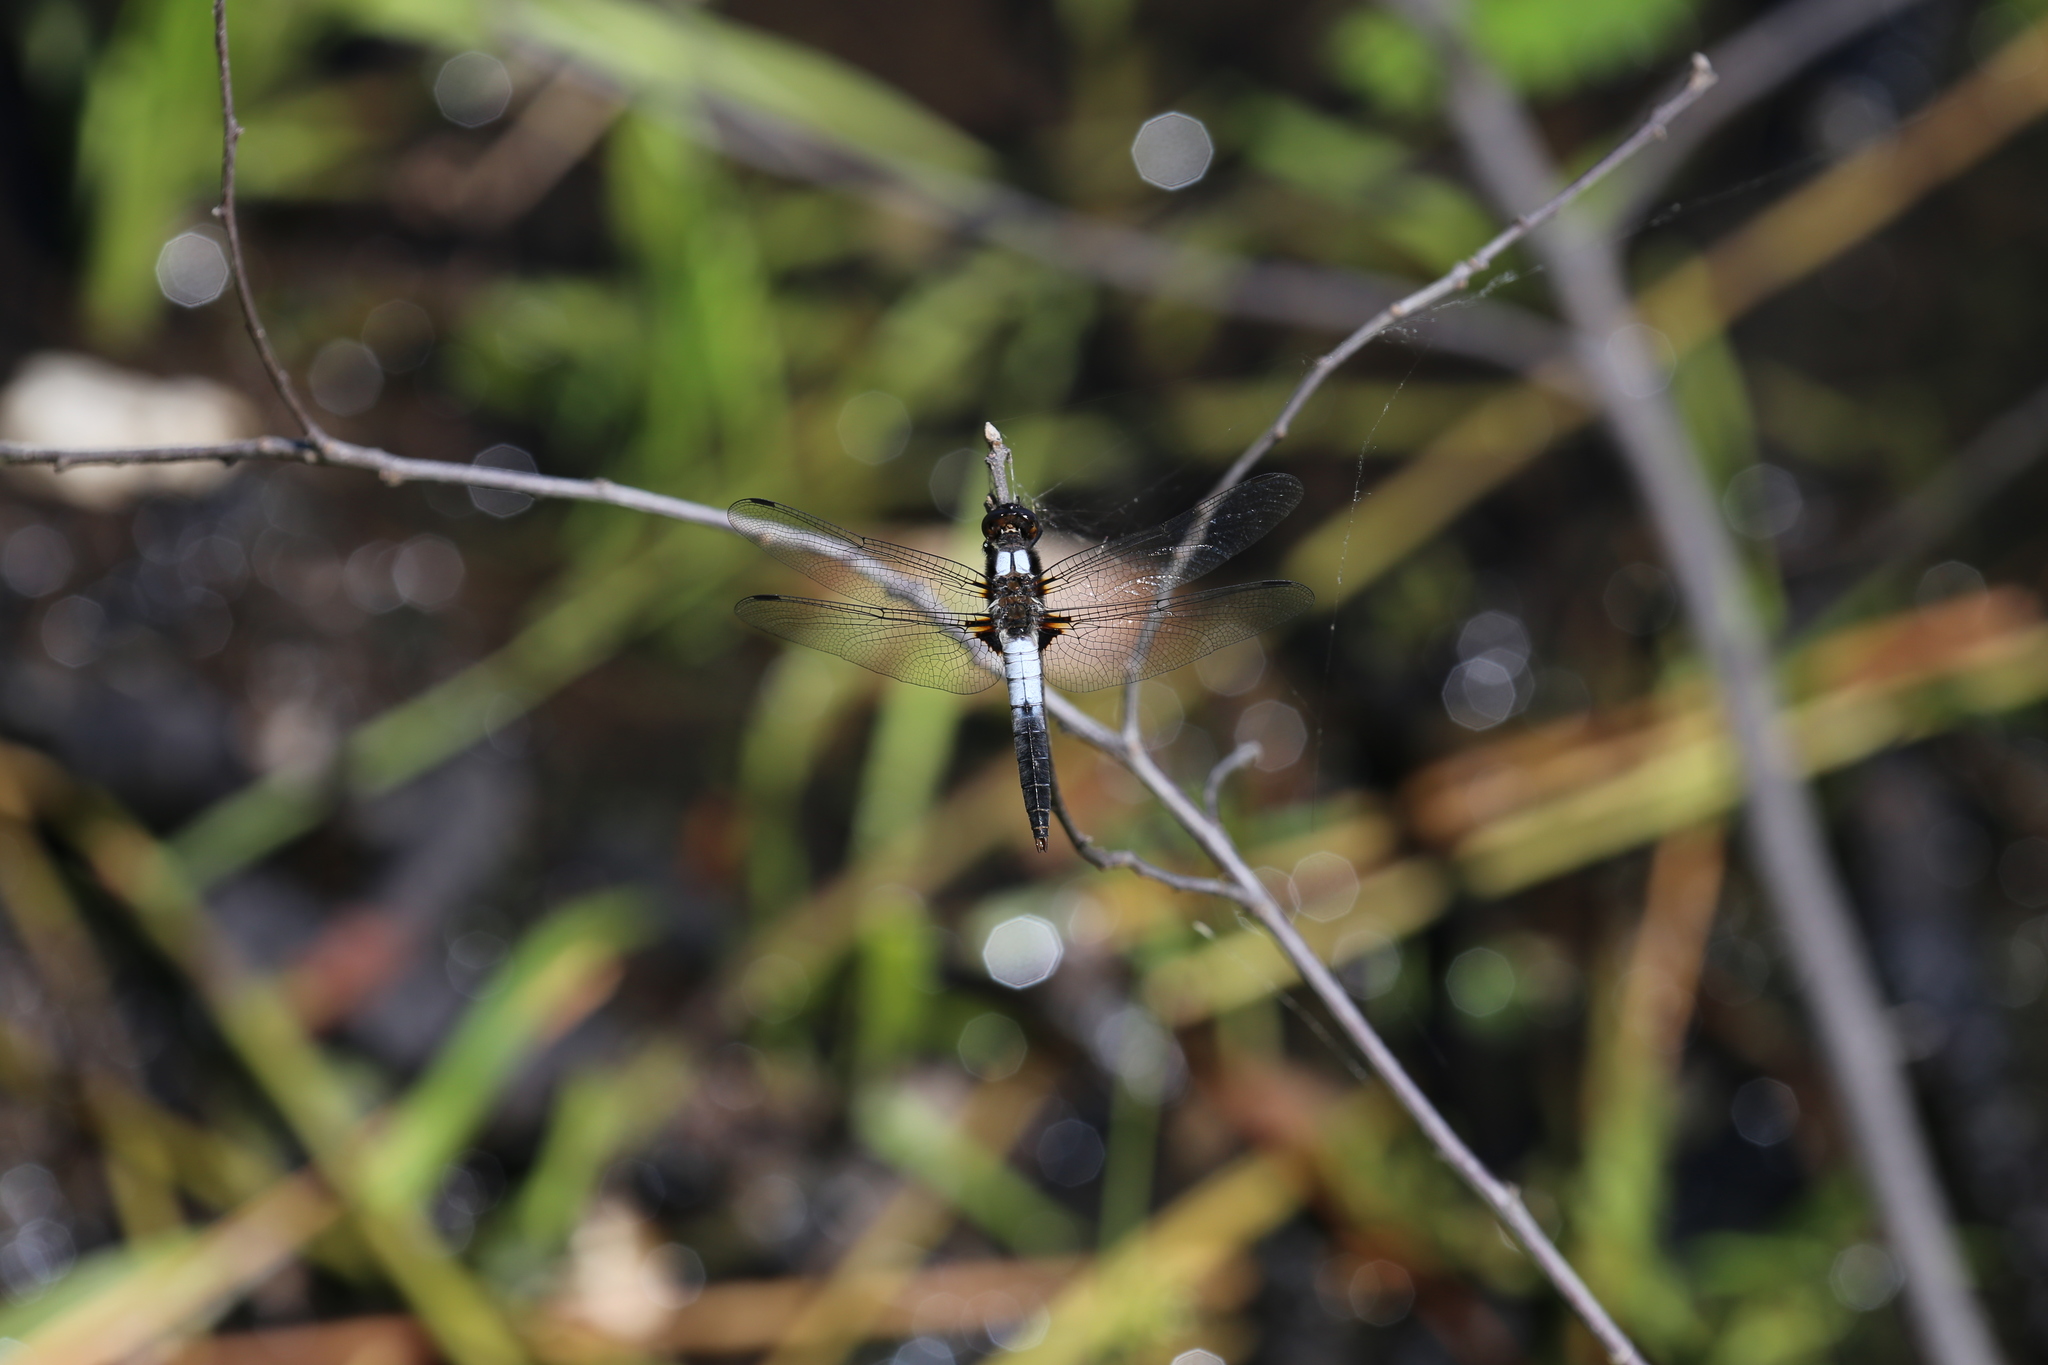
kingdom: Animalia
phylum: Arthropoda
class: Insecta
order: Odonata
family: Libellulidae
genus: Ladona
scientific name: Ladona julia
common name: Chalk-fronted corporal
